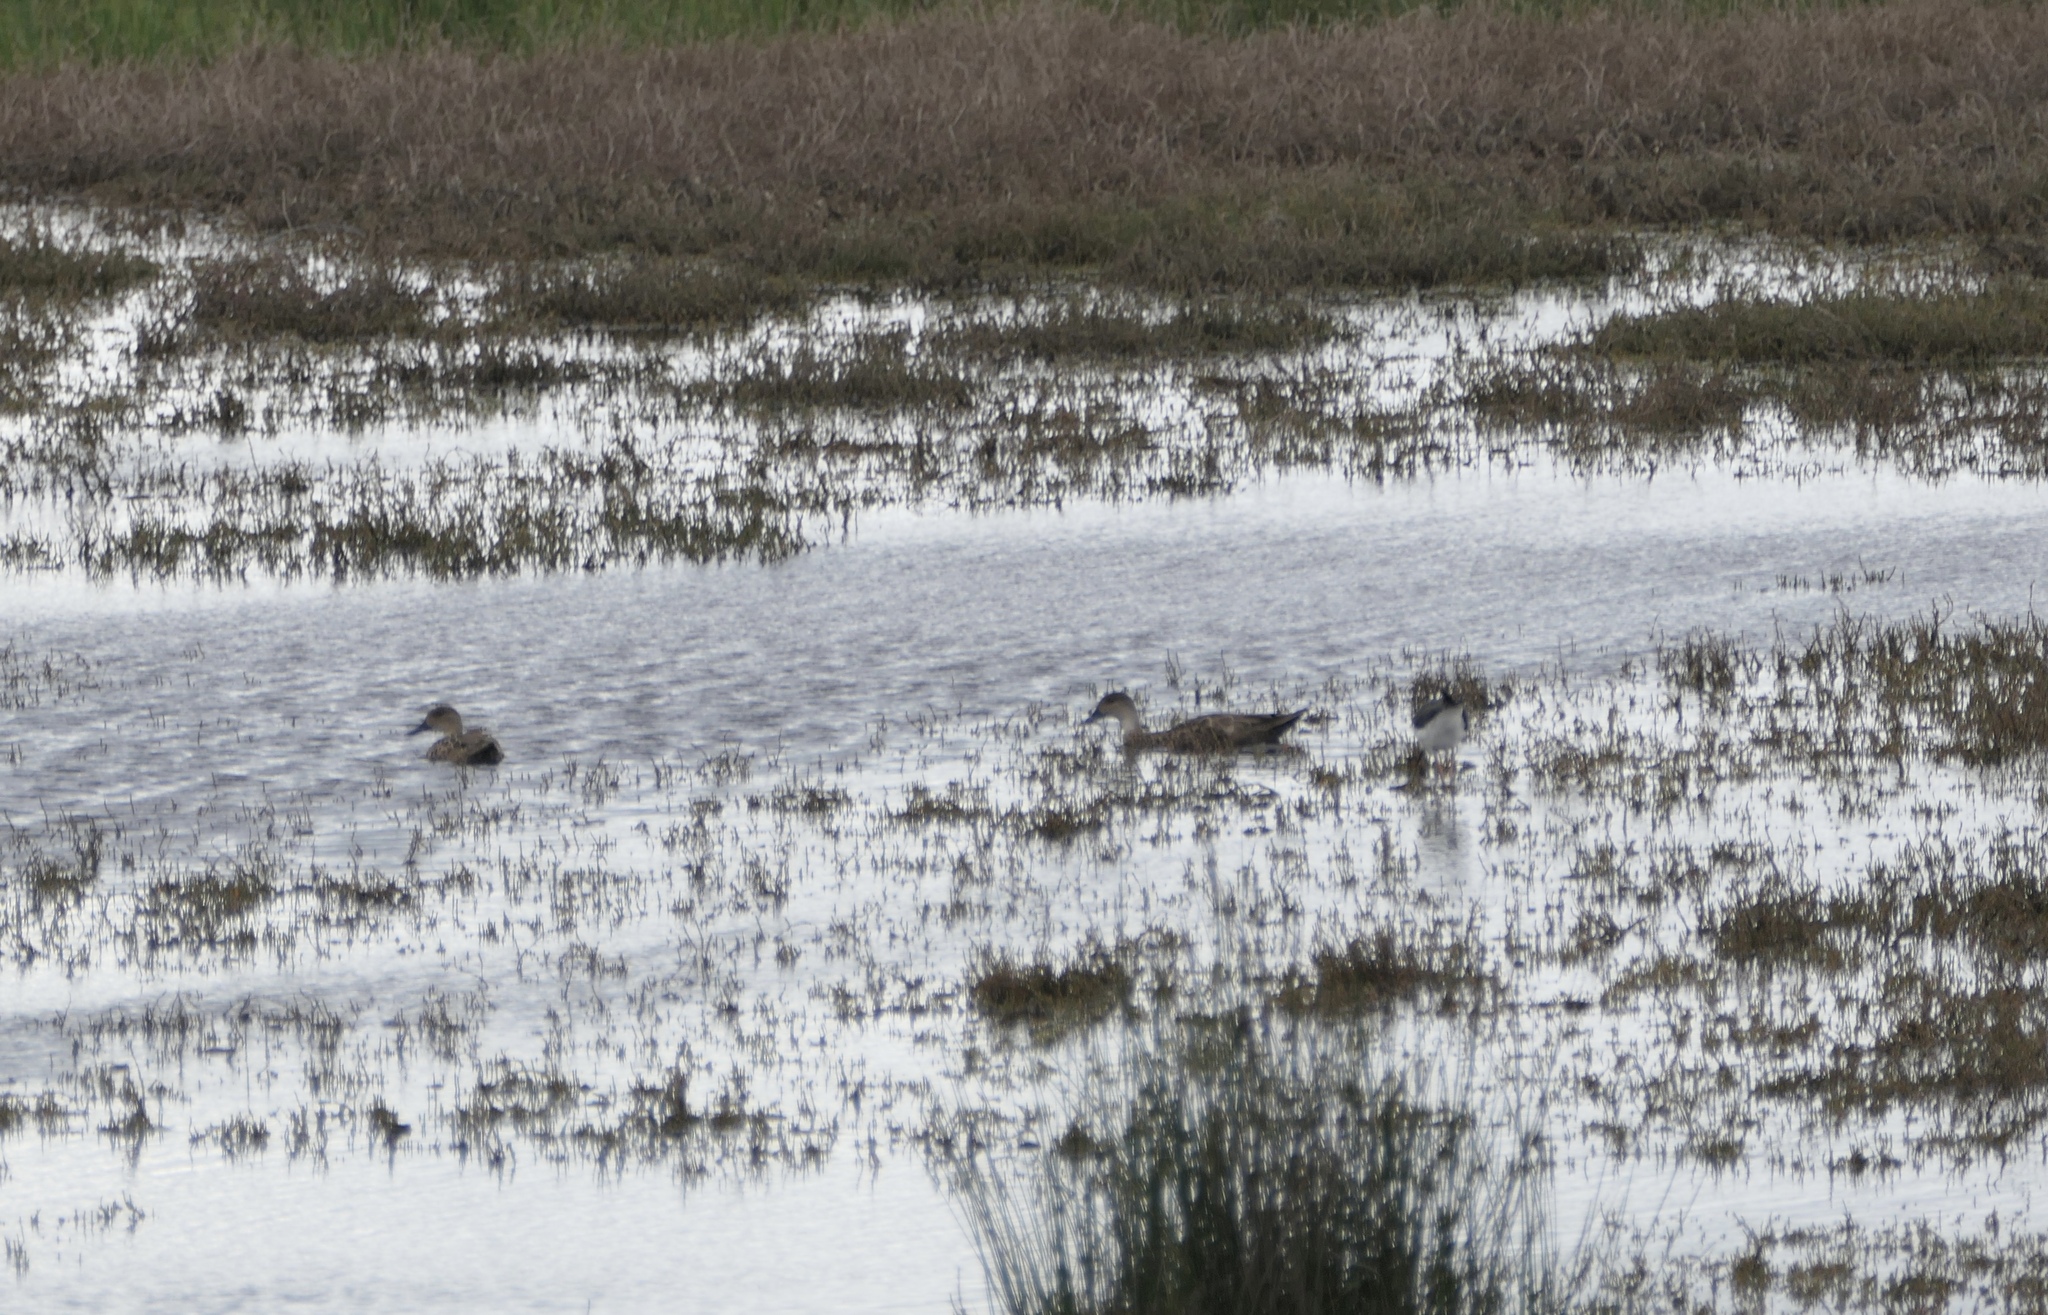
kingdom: Animalia
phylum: Chordata
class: Aves
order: Anseriformes
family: Anatidae
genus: Anas
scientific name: Anas gracilis
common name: Grey teal
